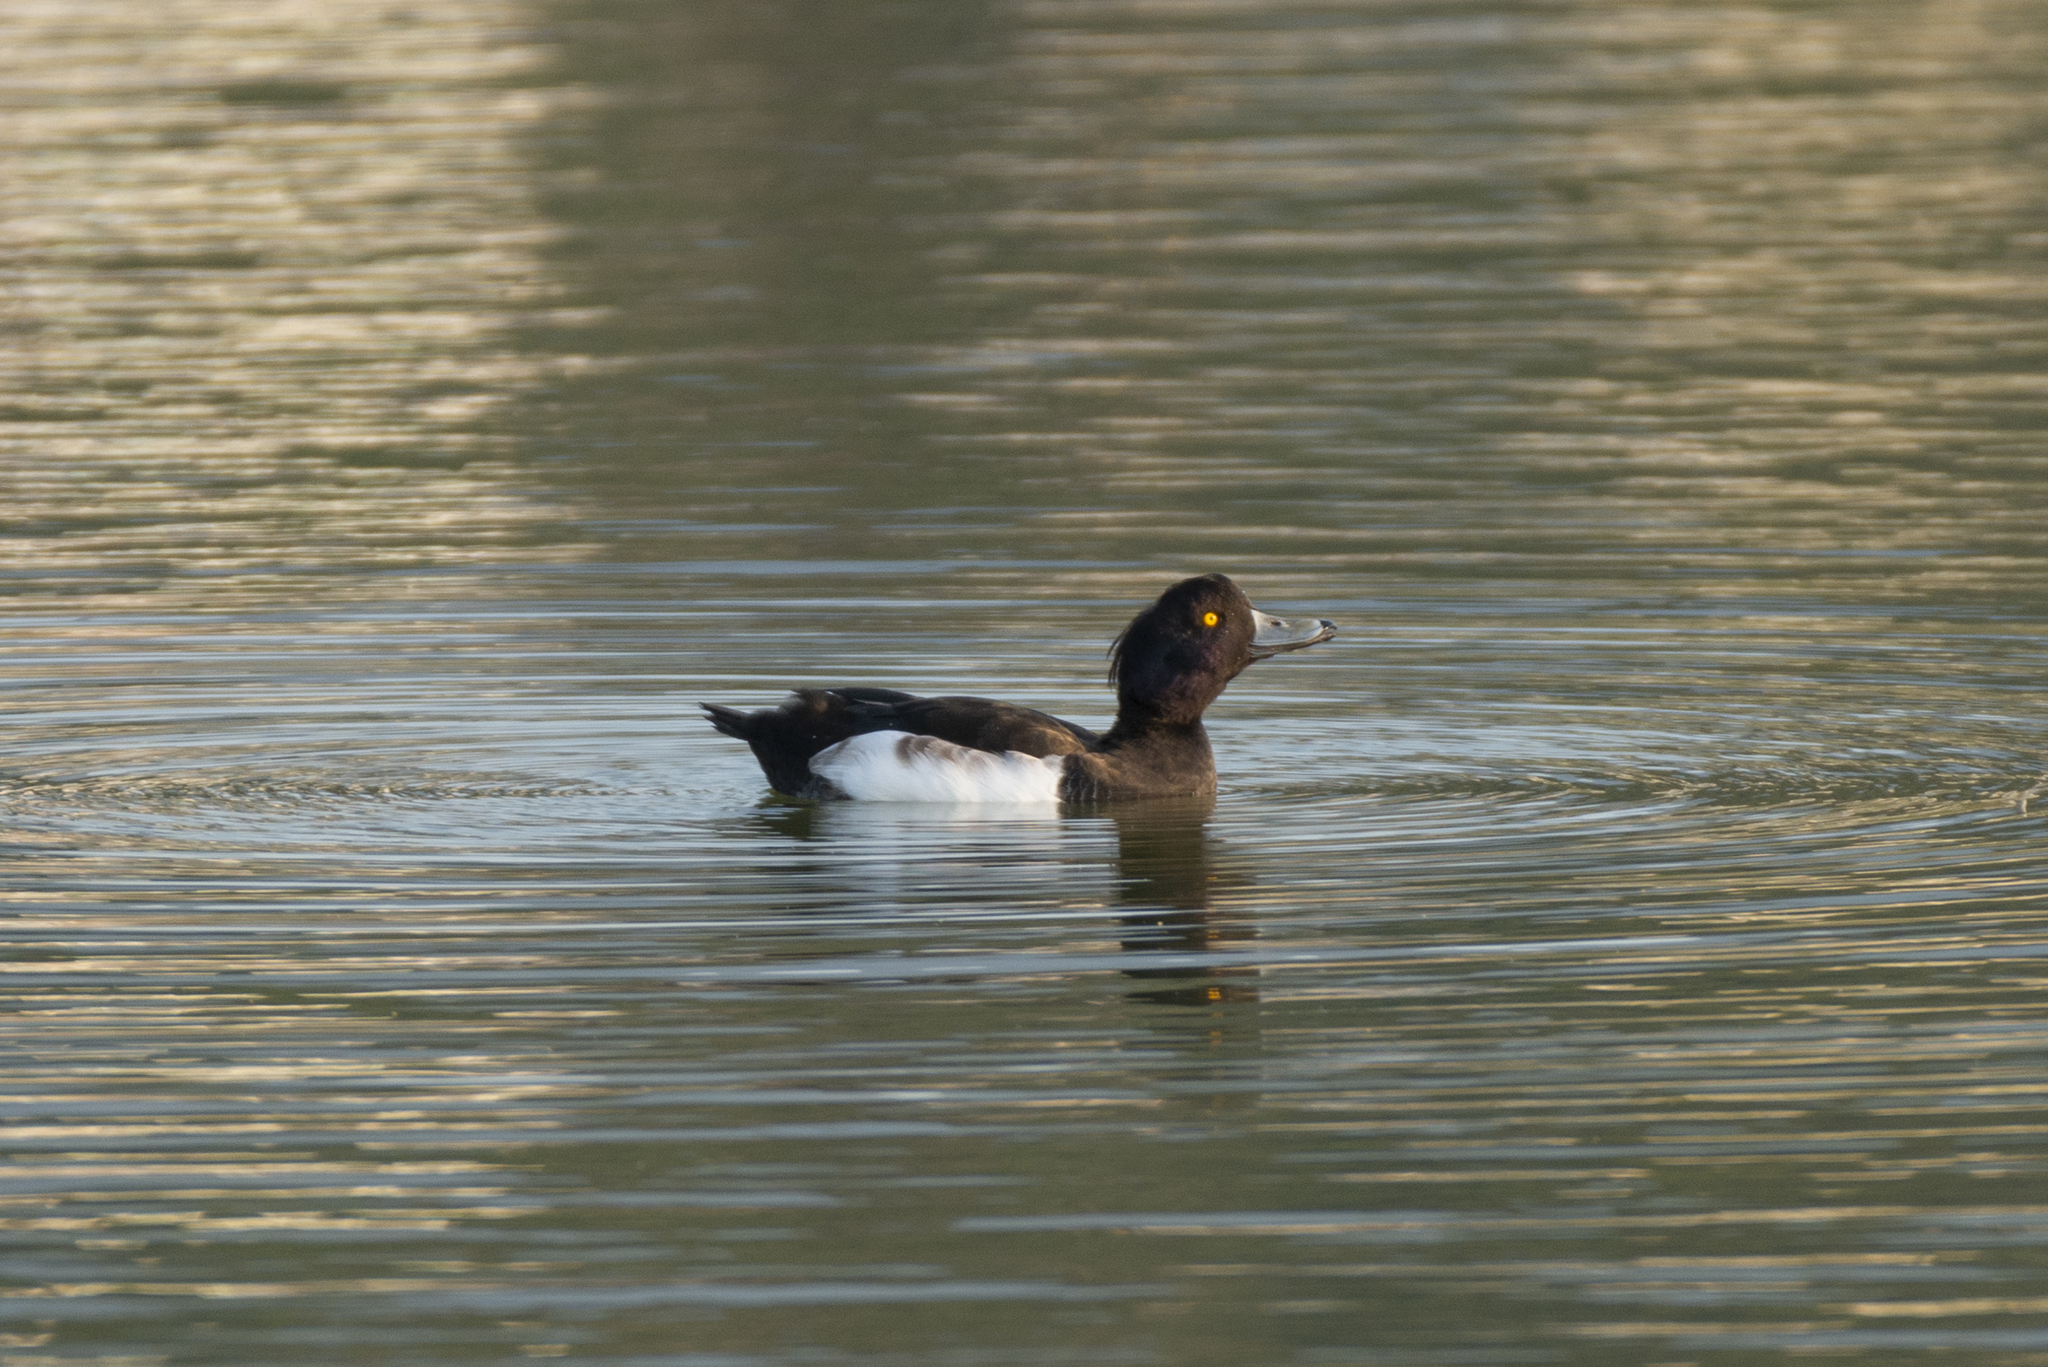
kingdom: Animalia
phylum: Chordata
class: Aves
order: Anseriformes
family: Anatidae
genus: Aythya
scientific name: Aythya fuligula
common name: Tufted duck
